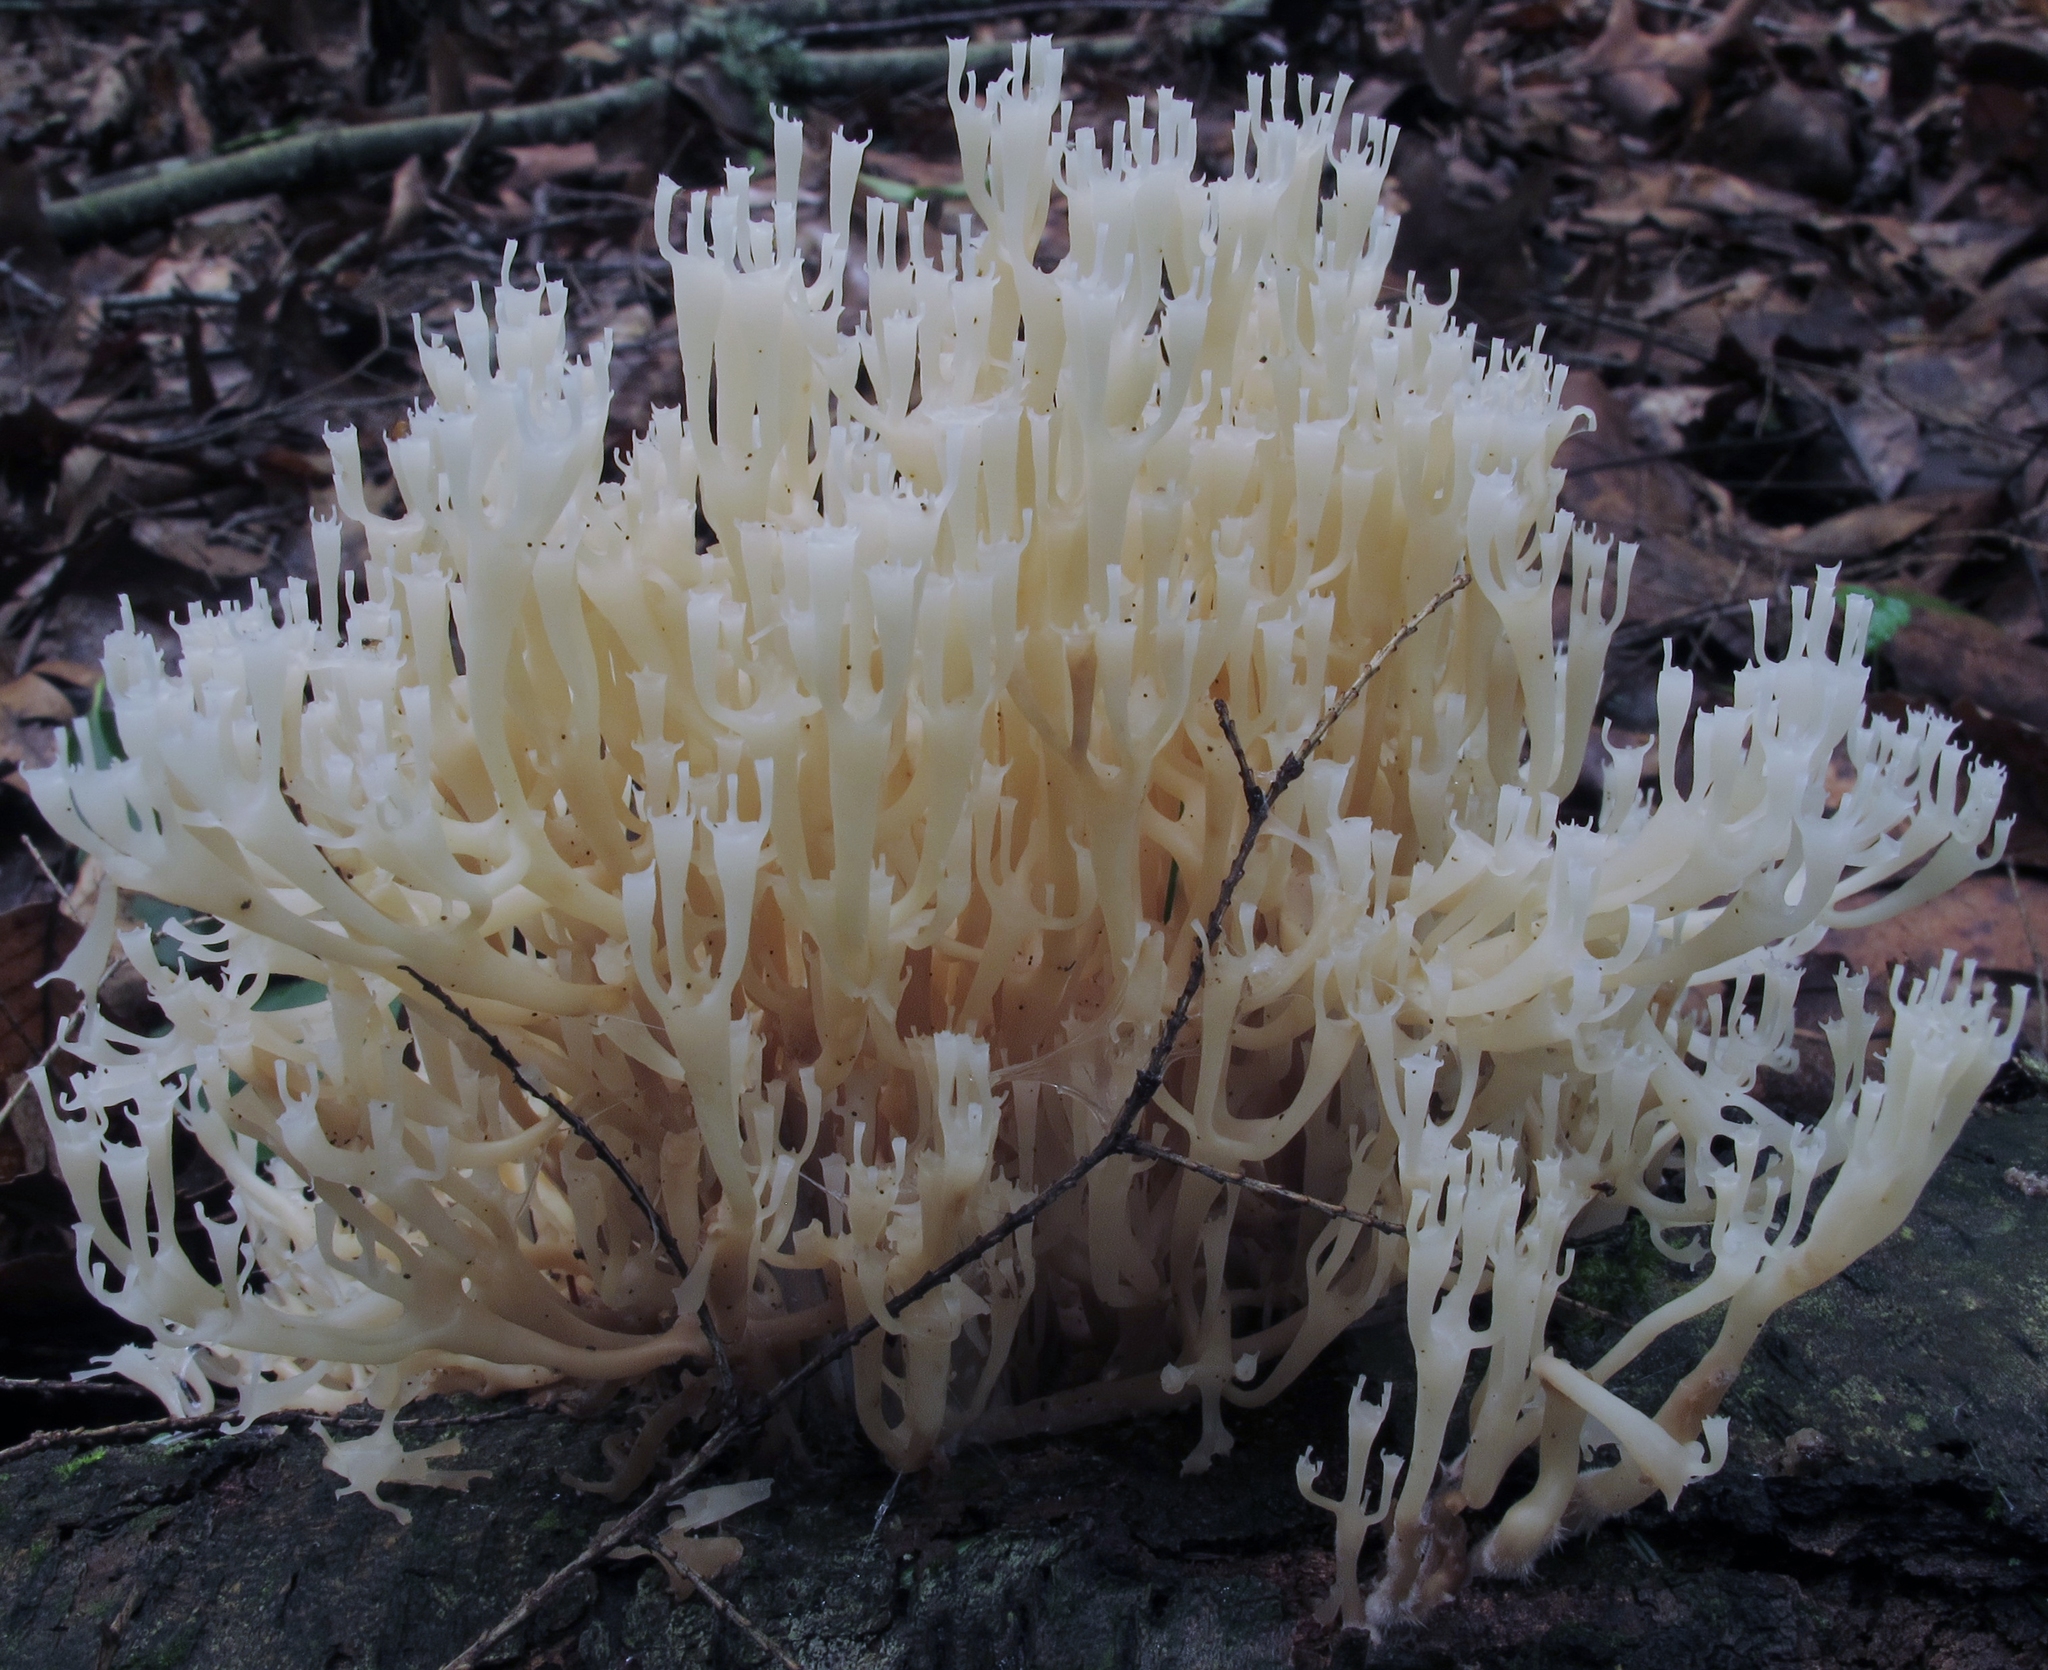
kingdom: Fungi
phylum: Basidiomycota
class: Agaricomycetes
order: Russulales
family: Auriscalpiaceae
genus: Artomyces
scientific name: Artomyces pyxidatus
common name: Crown-tipped coral fungus
